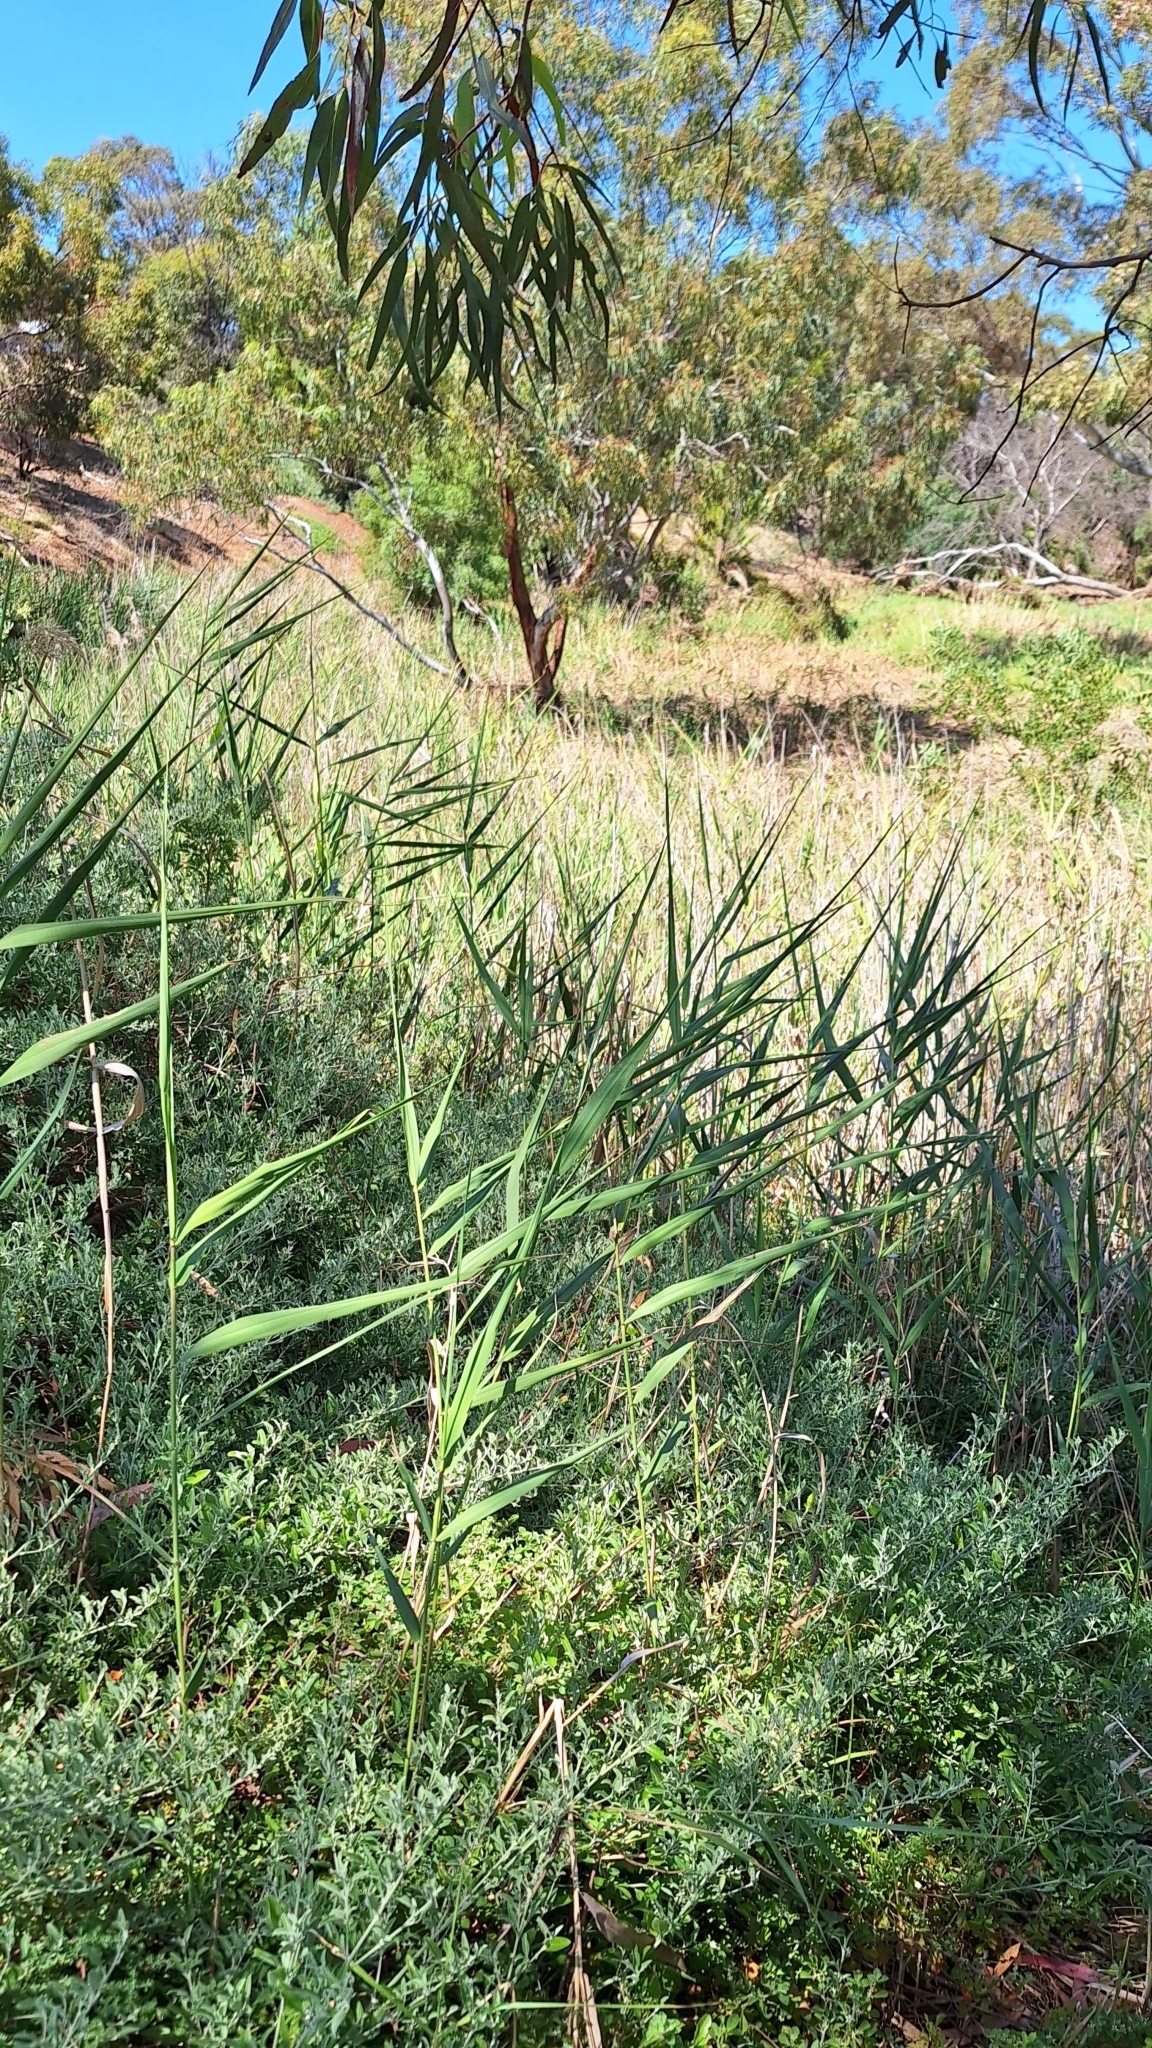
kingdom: Plantae
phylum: Tracheophyta
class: Liliopsida
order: Poales
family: Poaceae
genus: Phragmites
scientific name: Phragmites australis
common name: Common reed
